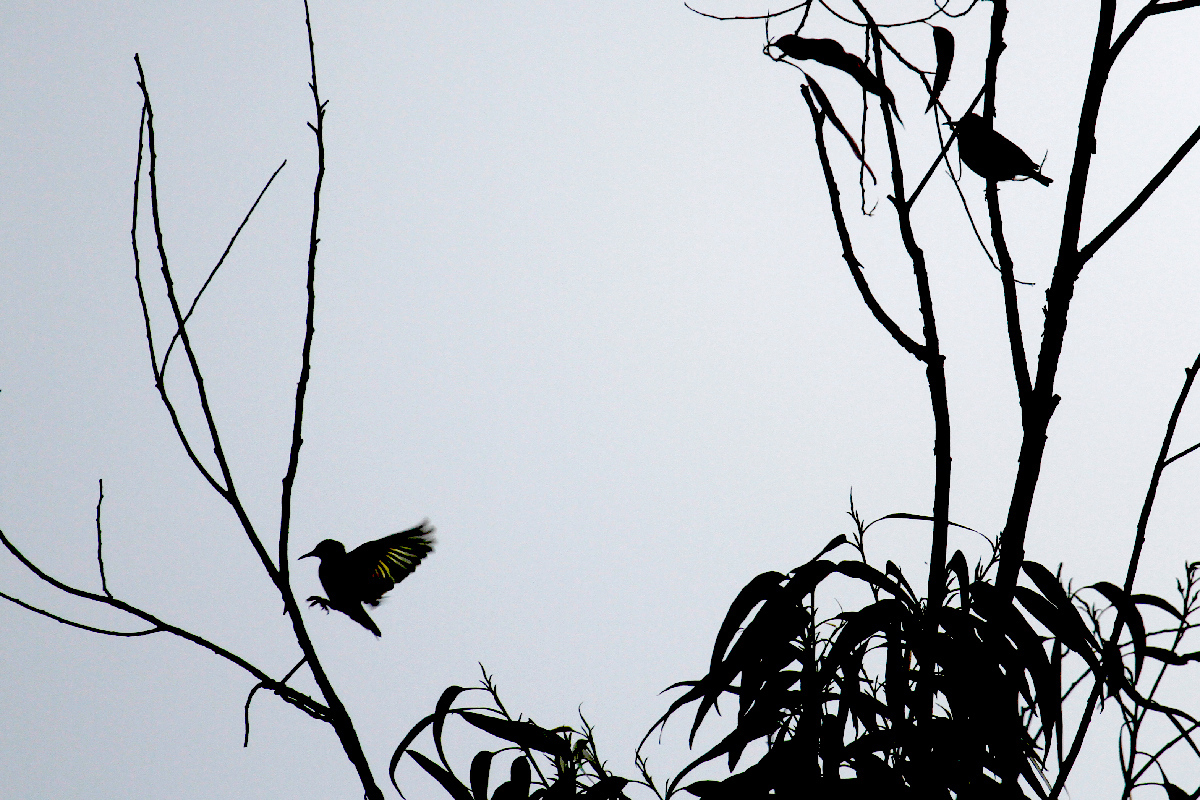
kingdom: Animalia
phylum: Chordata
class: Aves
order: Passeriformes
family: Thraupidae
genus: Cyanerpes
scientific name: Cyanerpes cyaneus
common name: Red-legged honeycreeper
